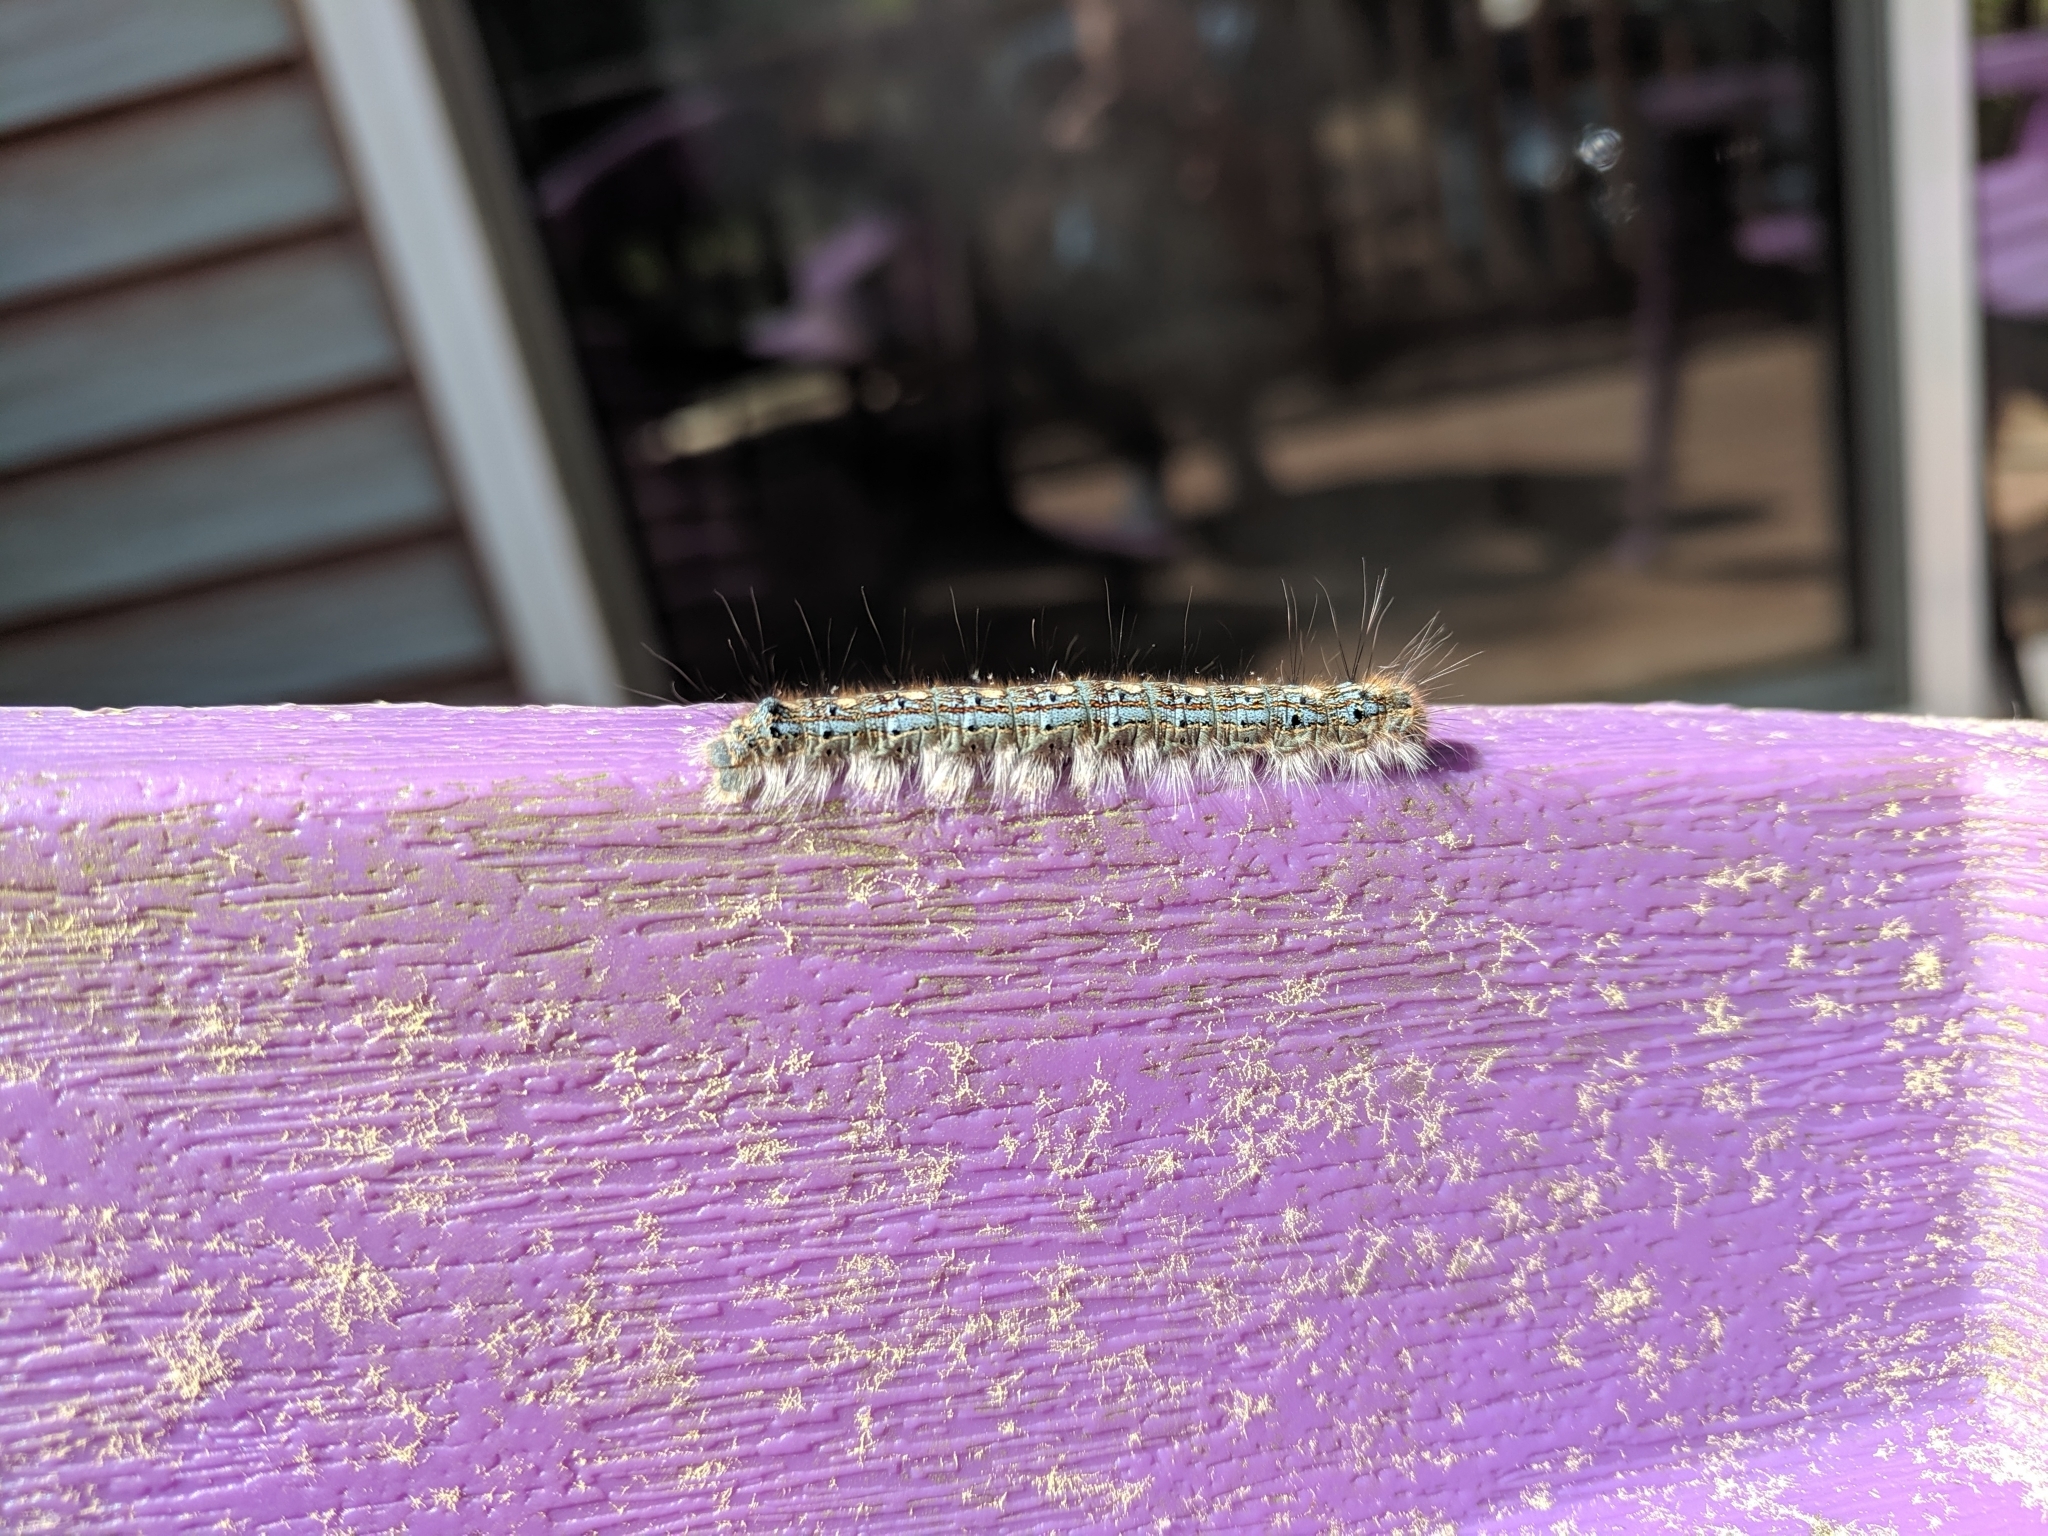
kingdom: Animalia
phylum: Arthropoda
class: Insecta
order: Lepidoptera
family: Lasiocampidae
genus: Malacosoma
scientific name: Malacosoma disstria
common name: Forest tent caterpillar
